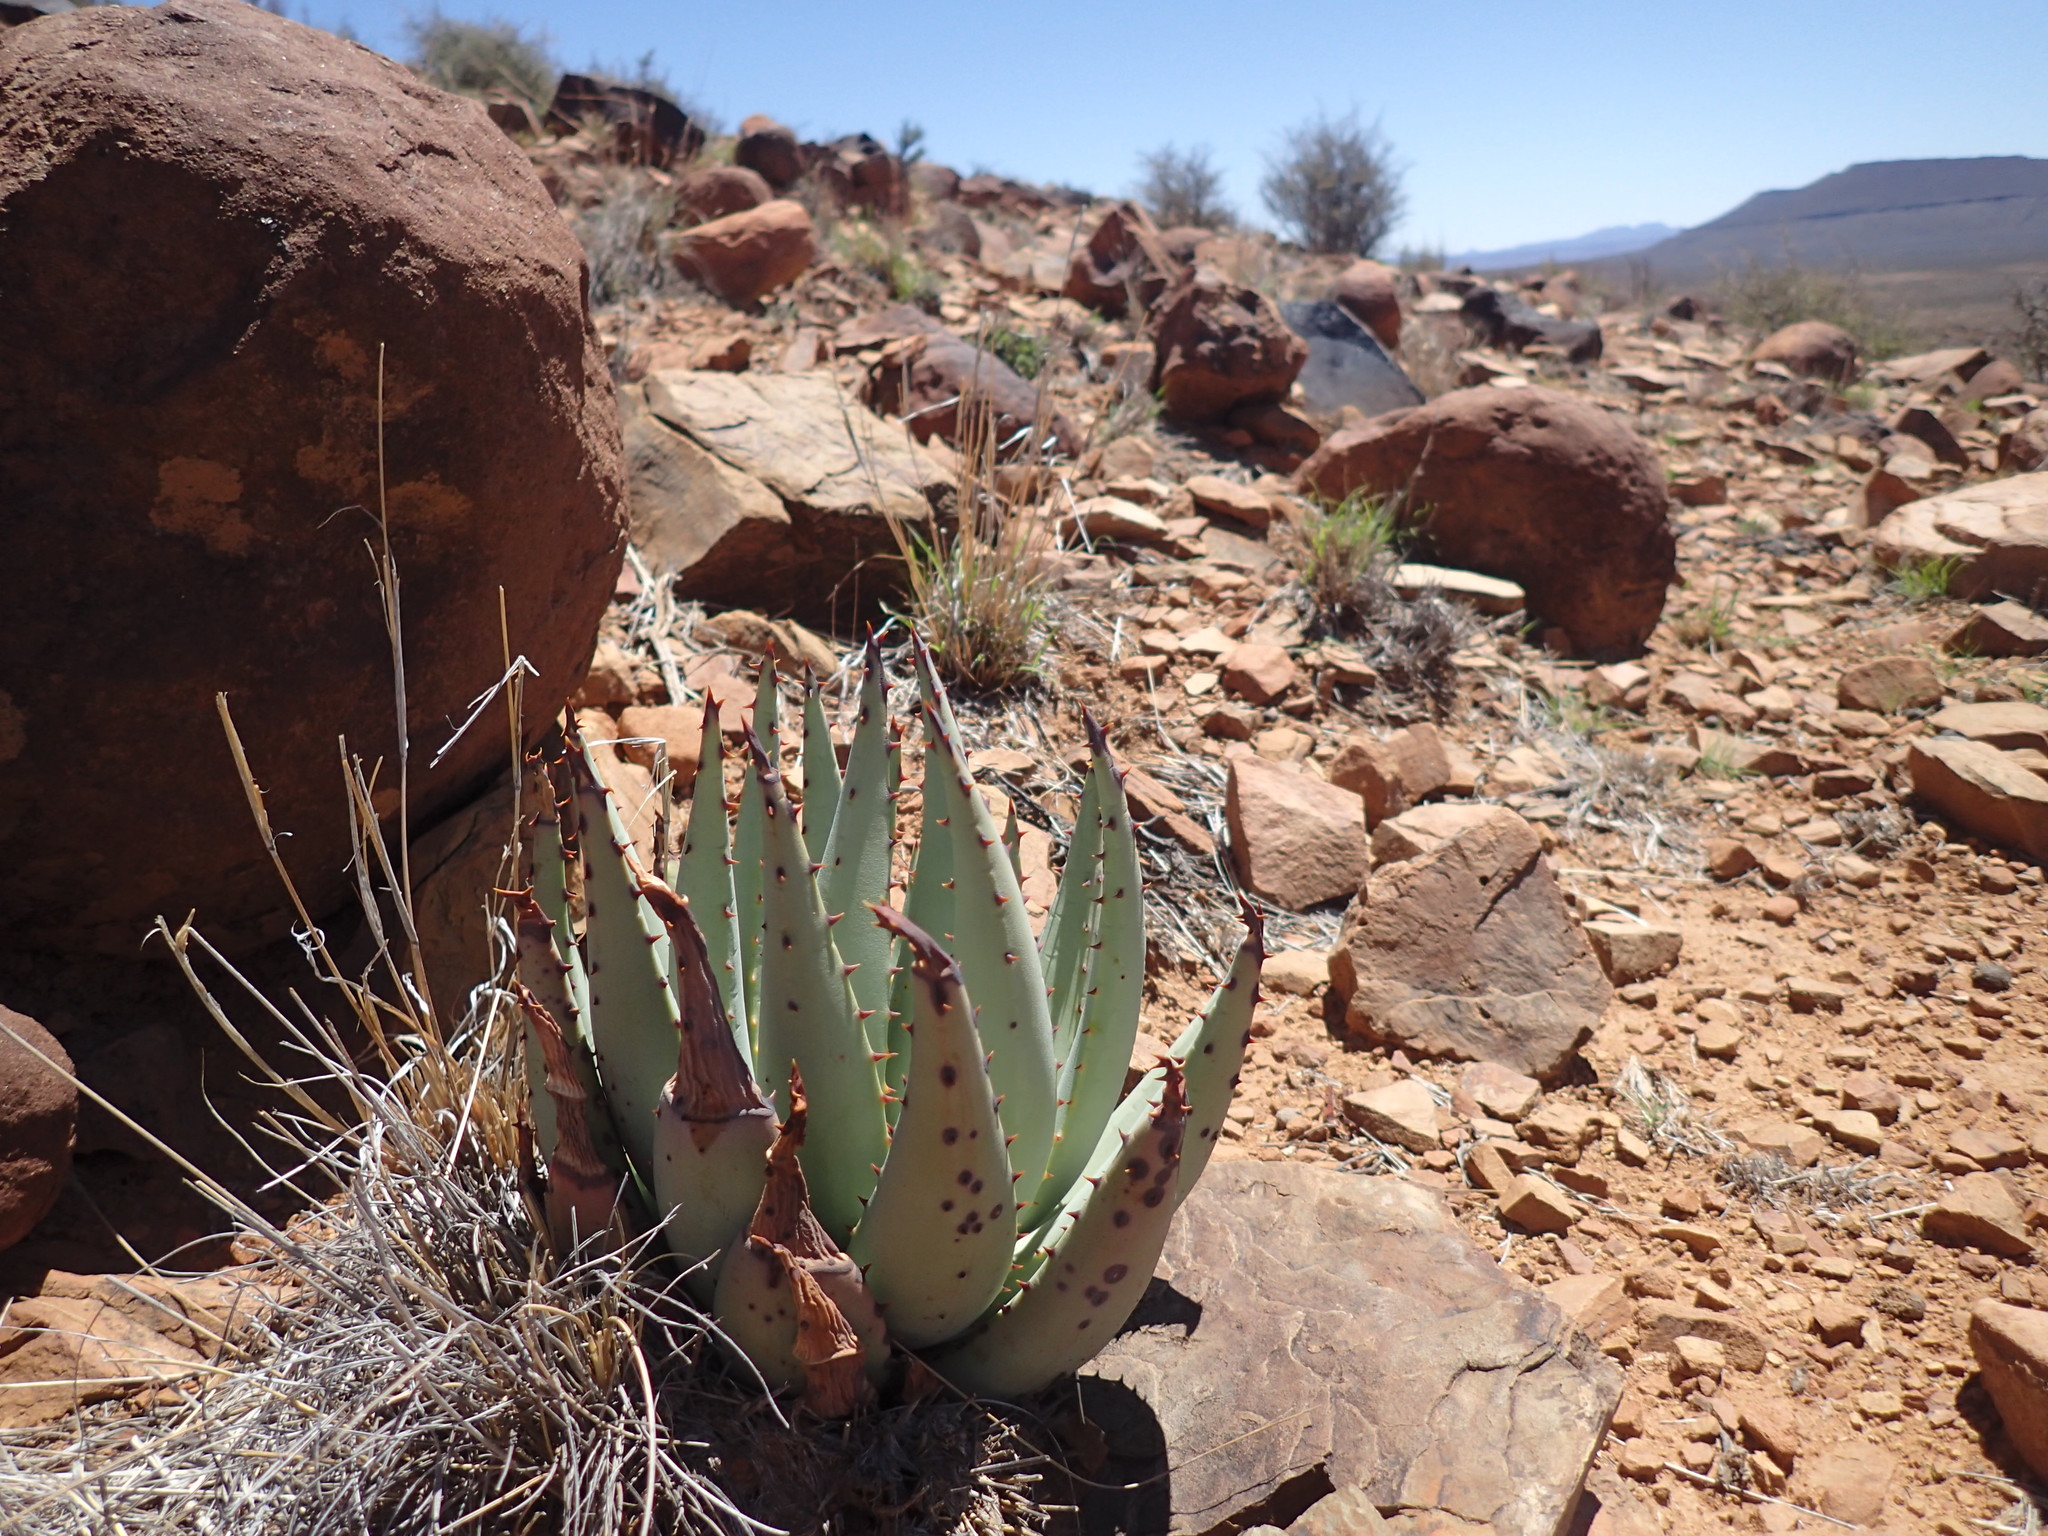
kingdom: Plantae
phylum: Tracheophyta
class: Liliopsida
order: Asparagales
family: Asphodelaceae
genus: Aloe
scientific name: Aloe claviflora
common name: Cannon aloe
